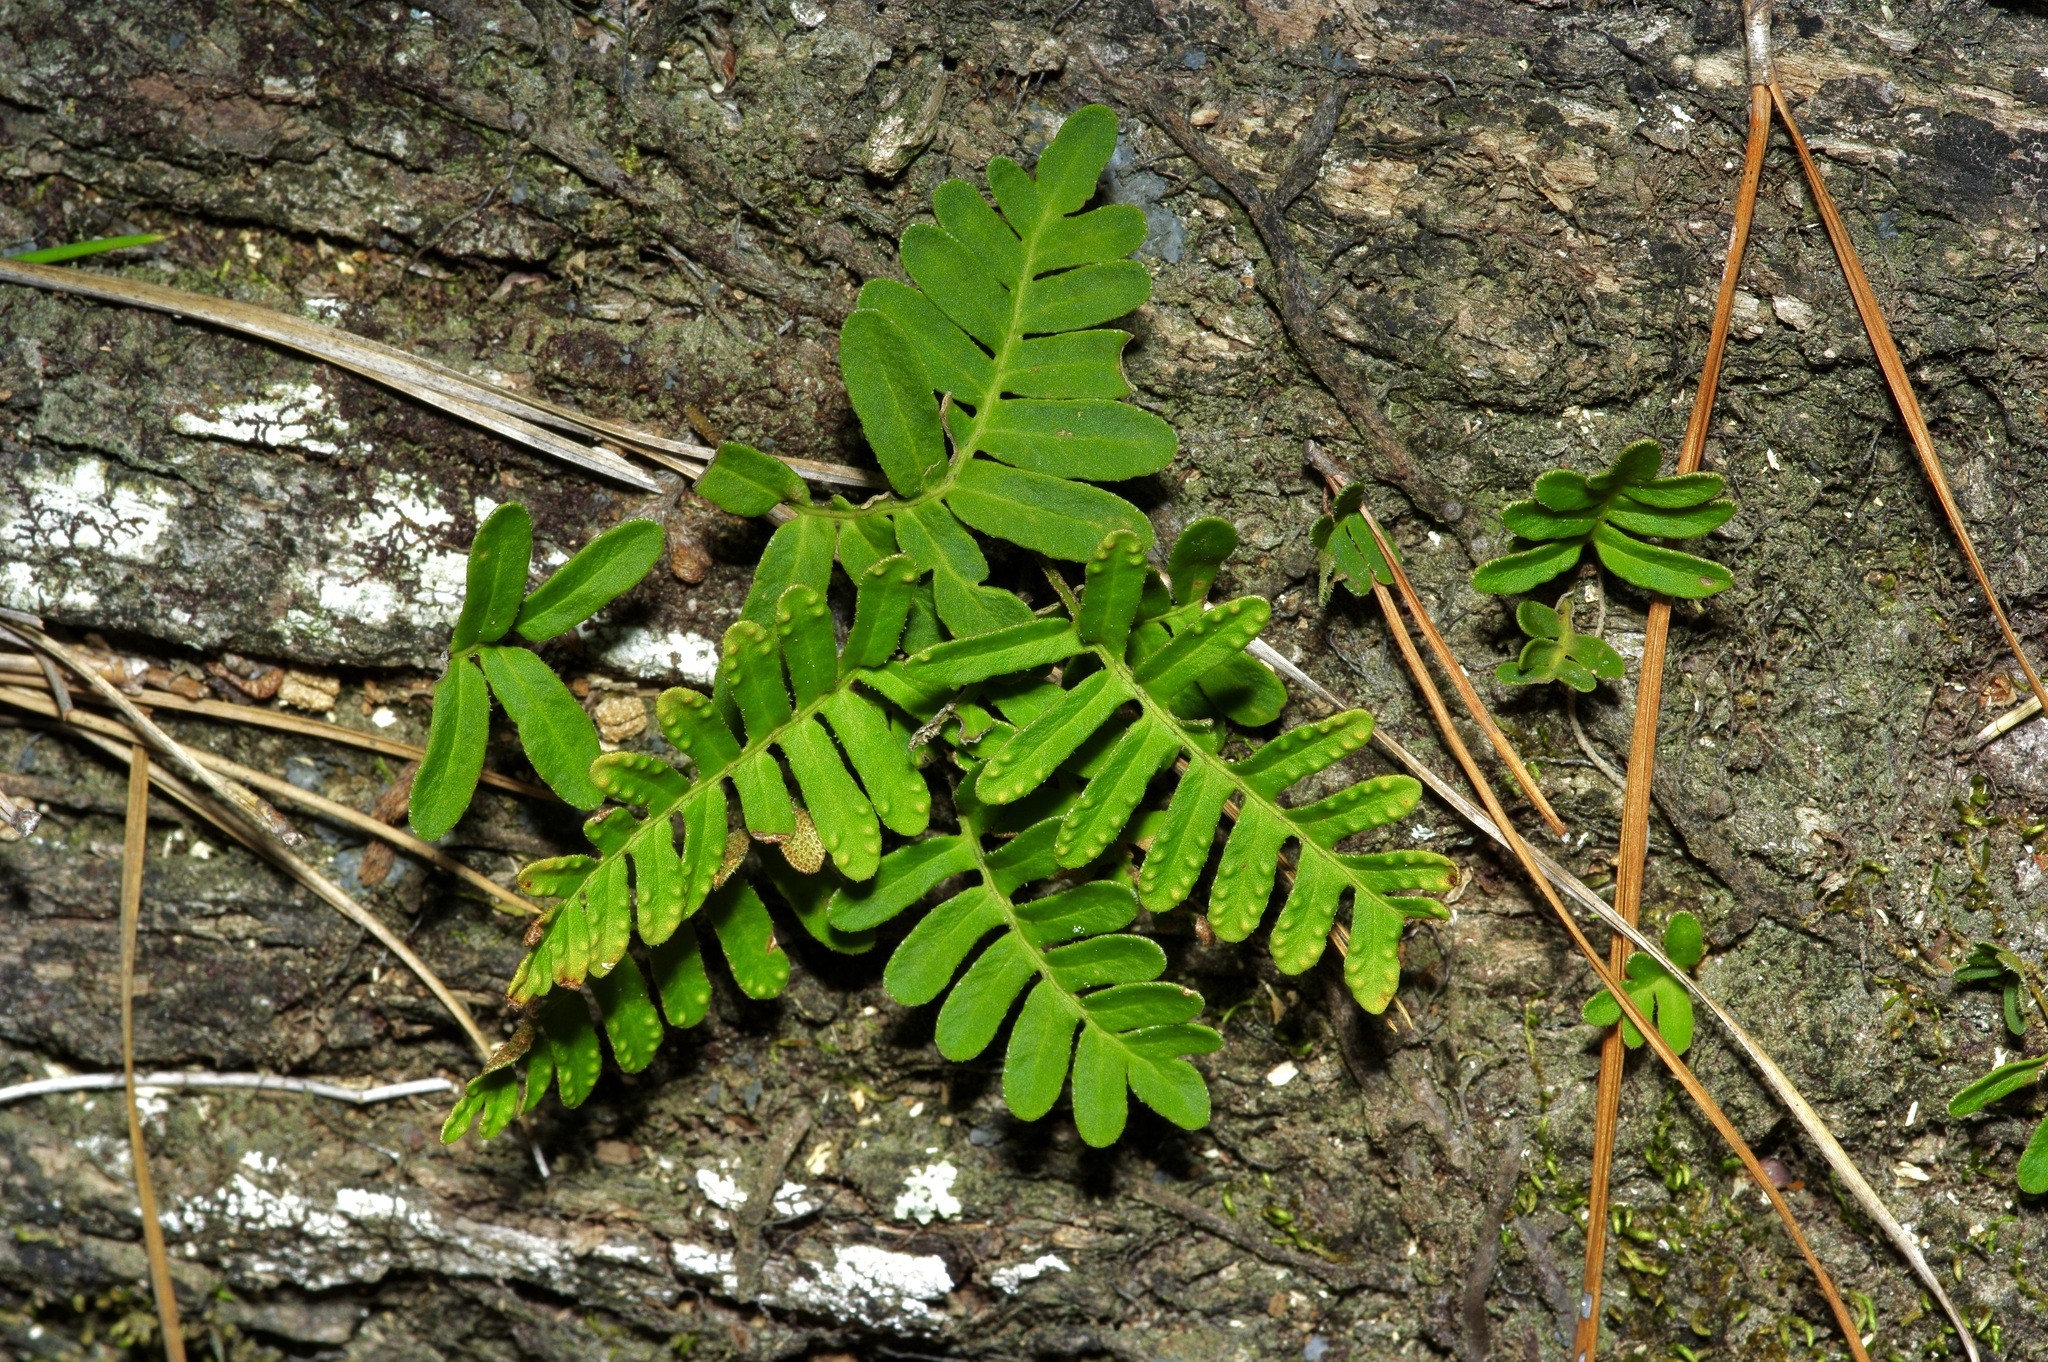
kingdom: Plantae
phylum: Tracheophyta
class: Polypodiopsida
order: Polypodiales
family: Polypodiaceae
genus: Pleopeltis
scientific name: Pleopeltis michauxiana
